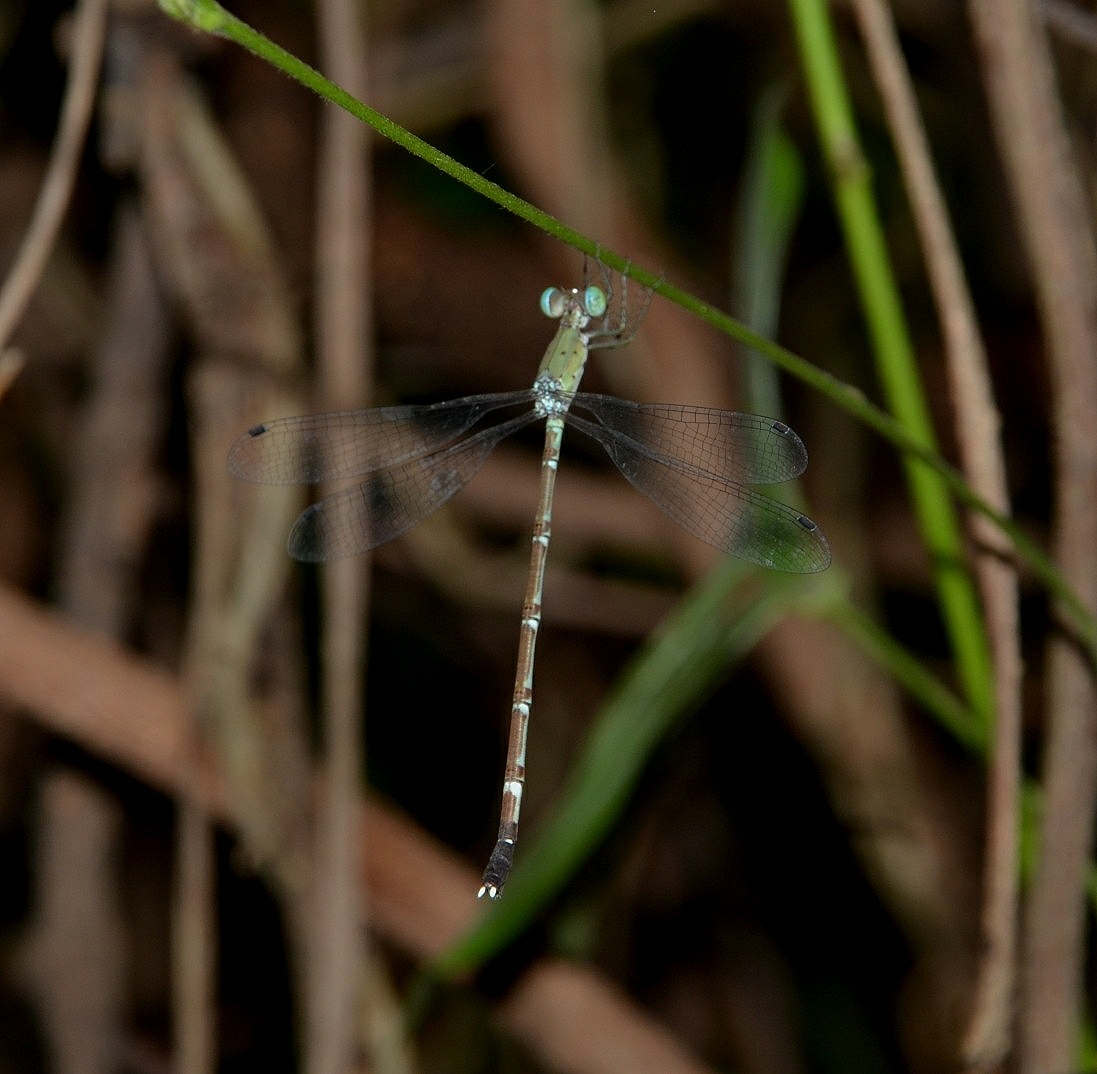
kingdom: Animalia
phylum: Arthropoda
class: Insecta
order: Odonata
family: Lestidae
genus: Platylestes
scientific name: Platylestes platystylus
